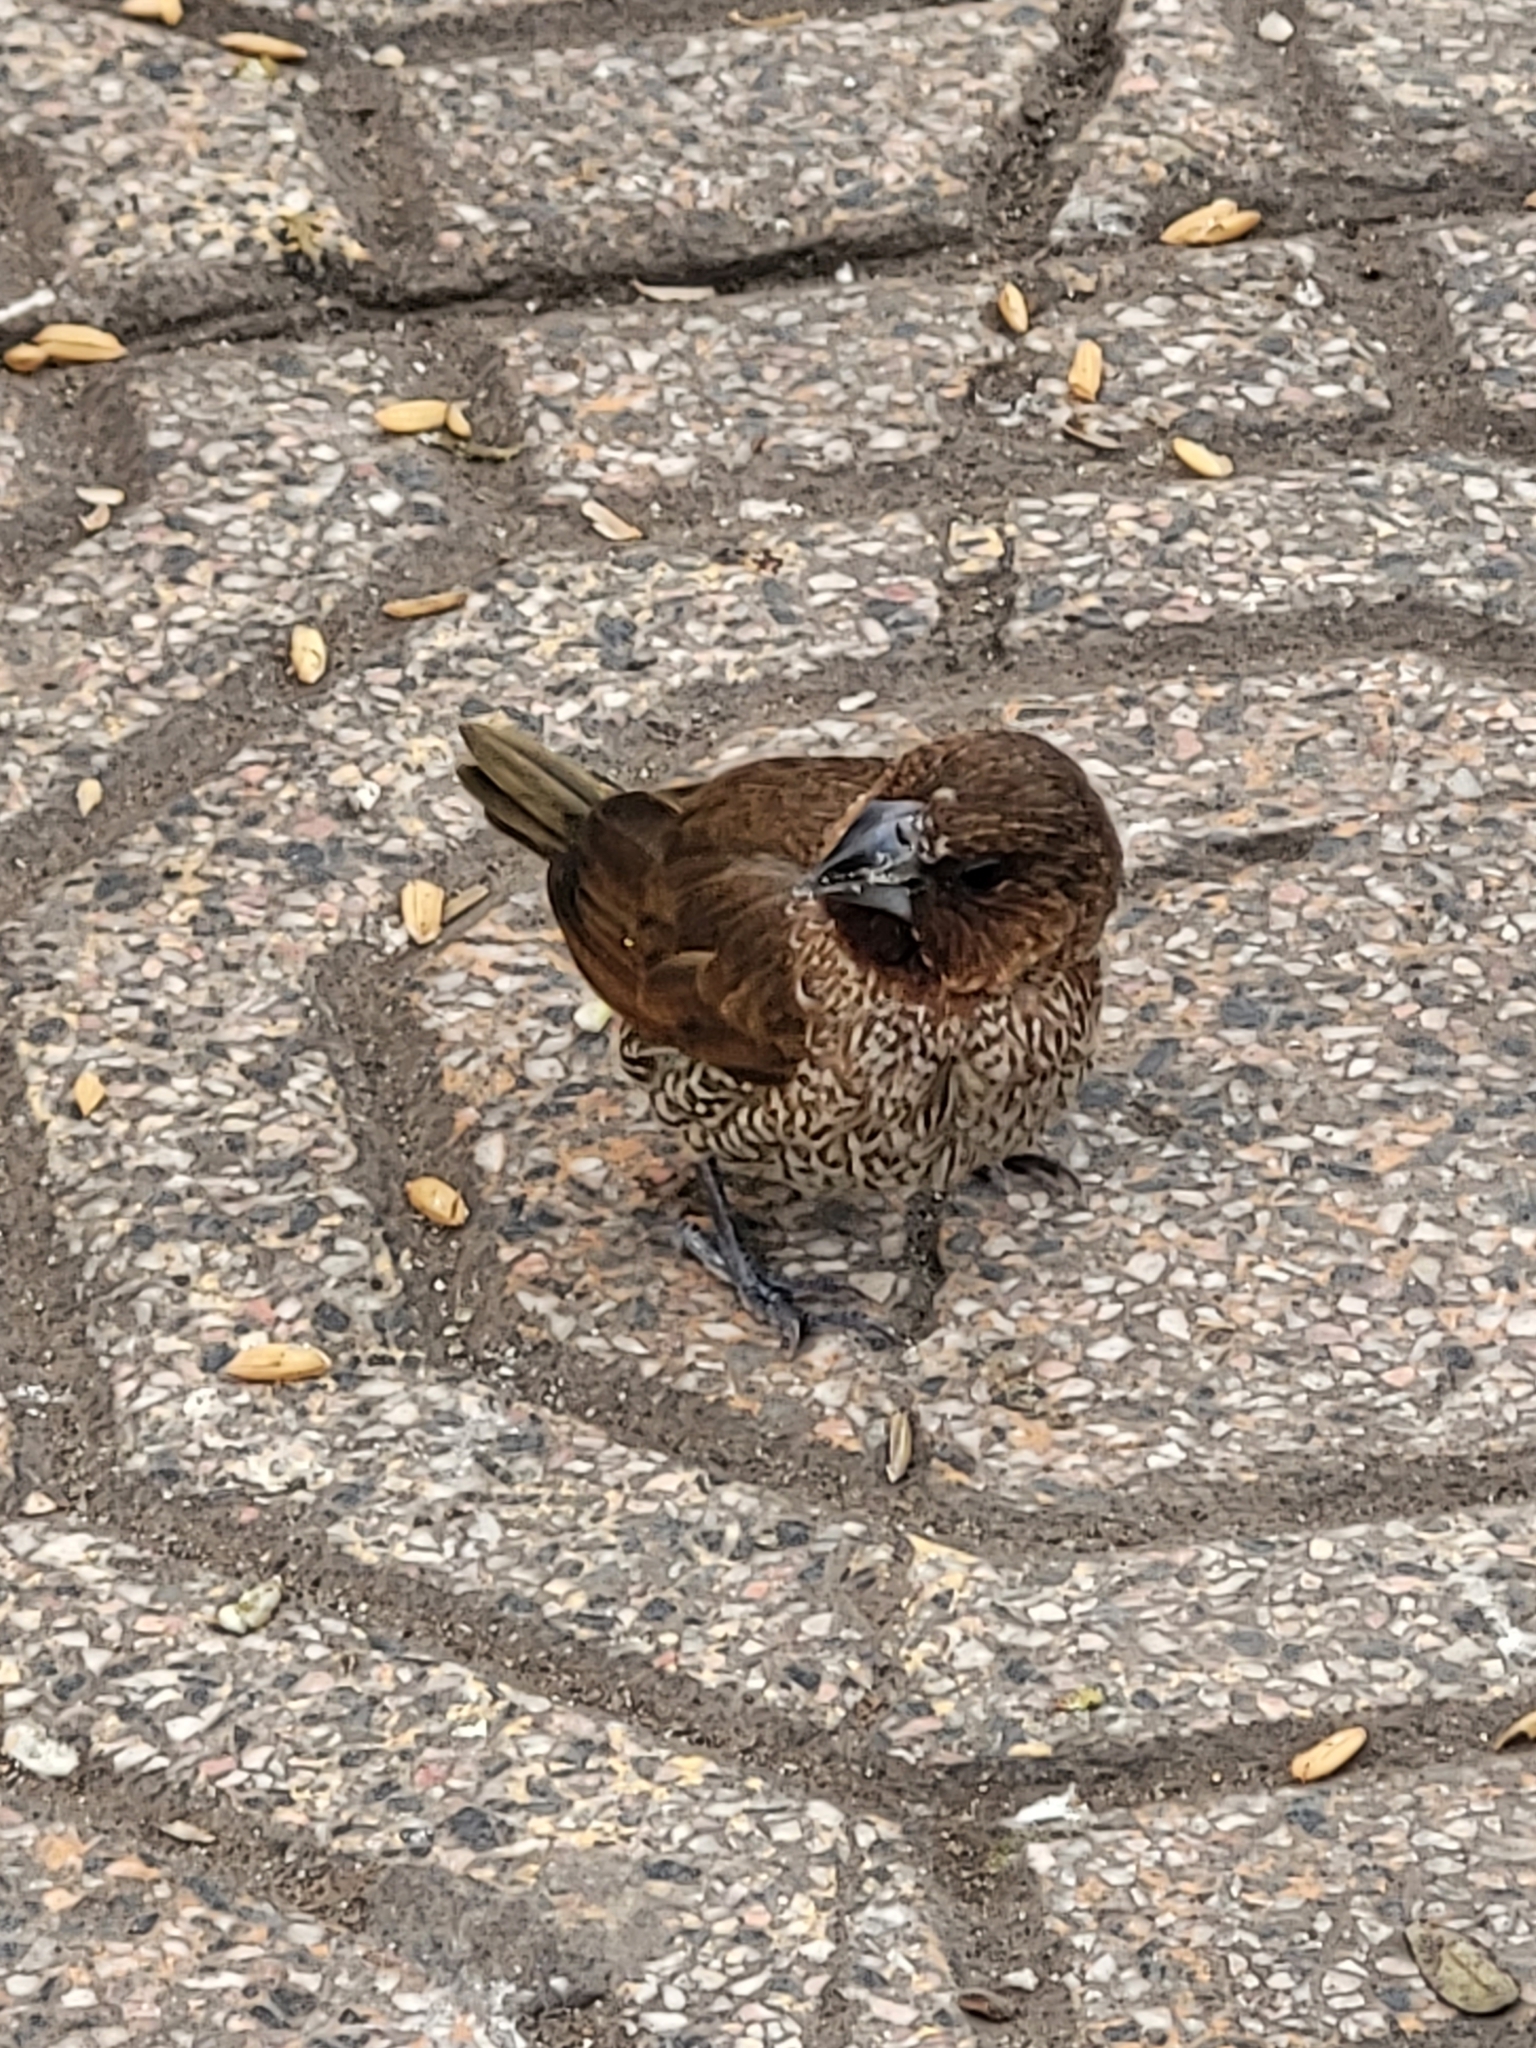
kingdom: Animalia
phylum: Chordata
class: Aves
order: Passeriformes
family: Estrildidae
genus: Lonchura
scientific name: Lonchura punctulata
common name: Scaly-breasted munia
